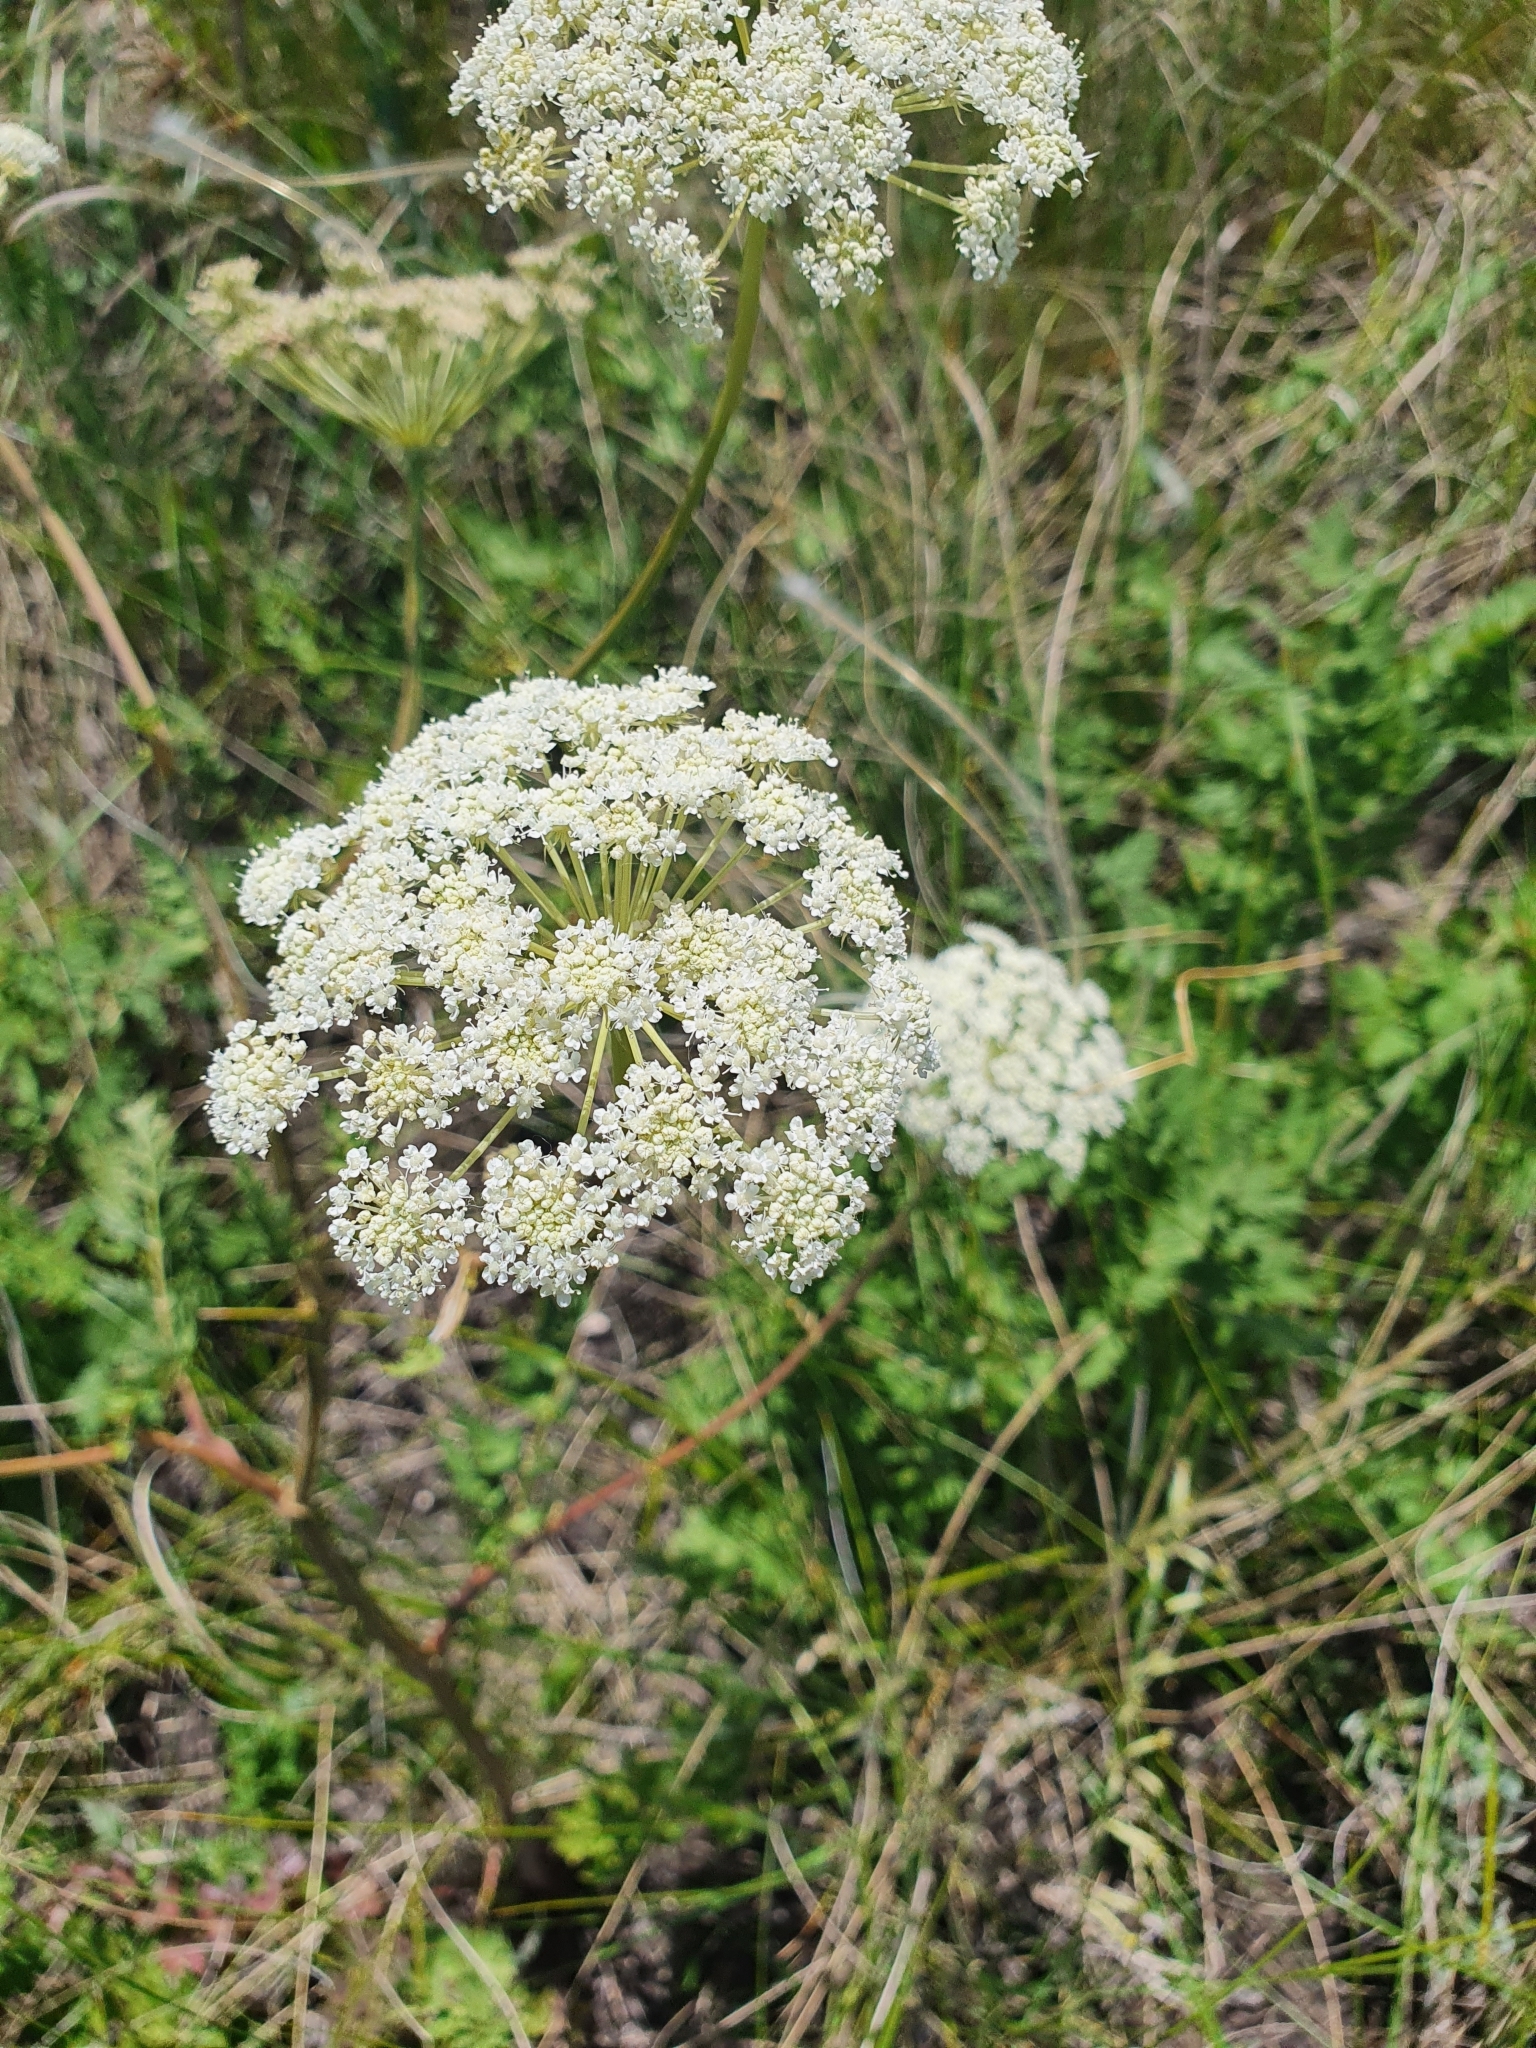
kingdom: Plantae
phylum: Tracheophyta
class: Magnoliopsida
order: Apiales
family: Apiaceae
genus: Seseli
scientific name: Seseli libanotis
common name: Mooncarrot
